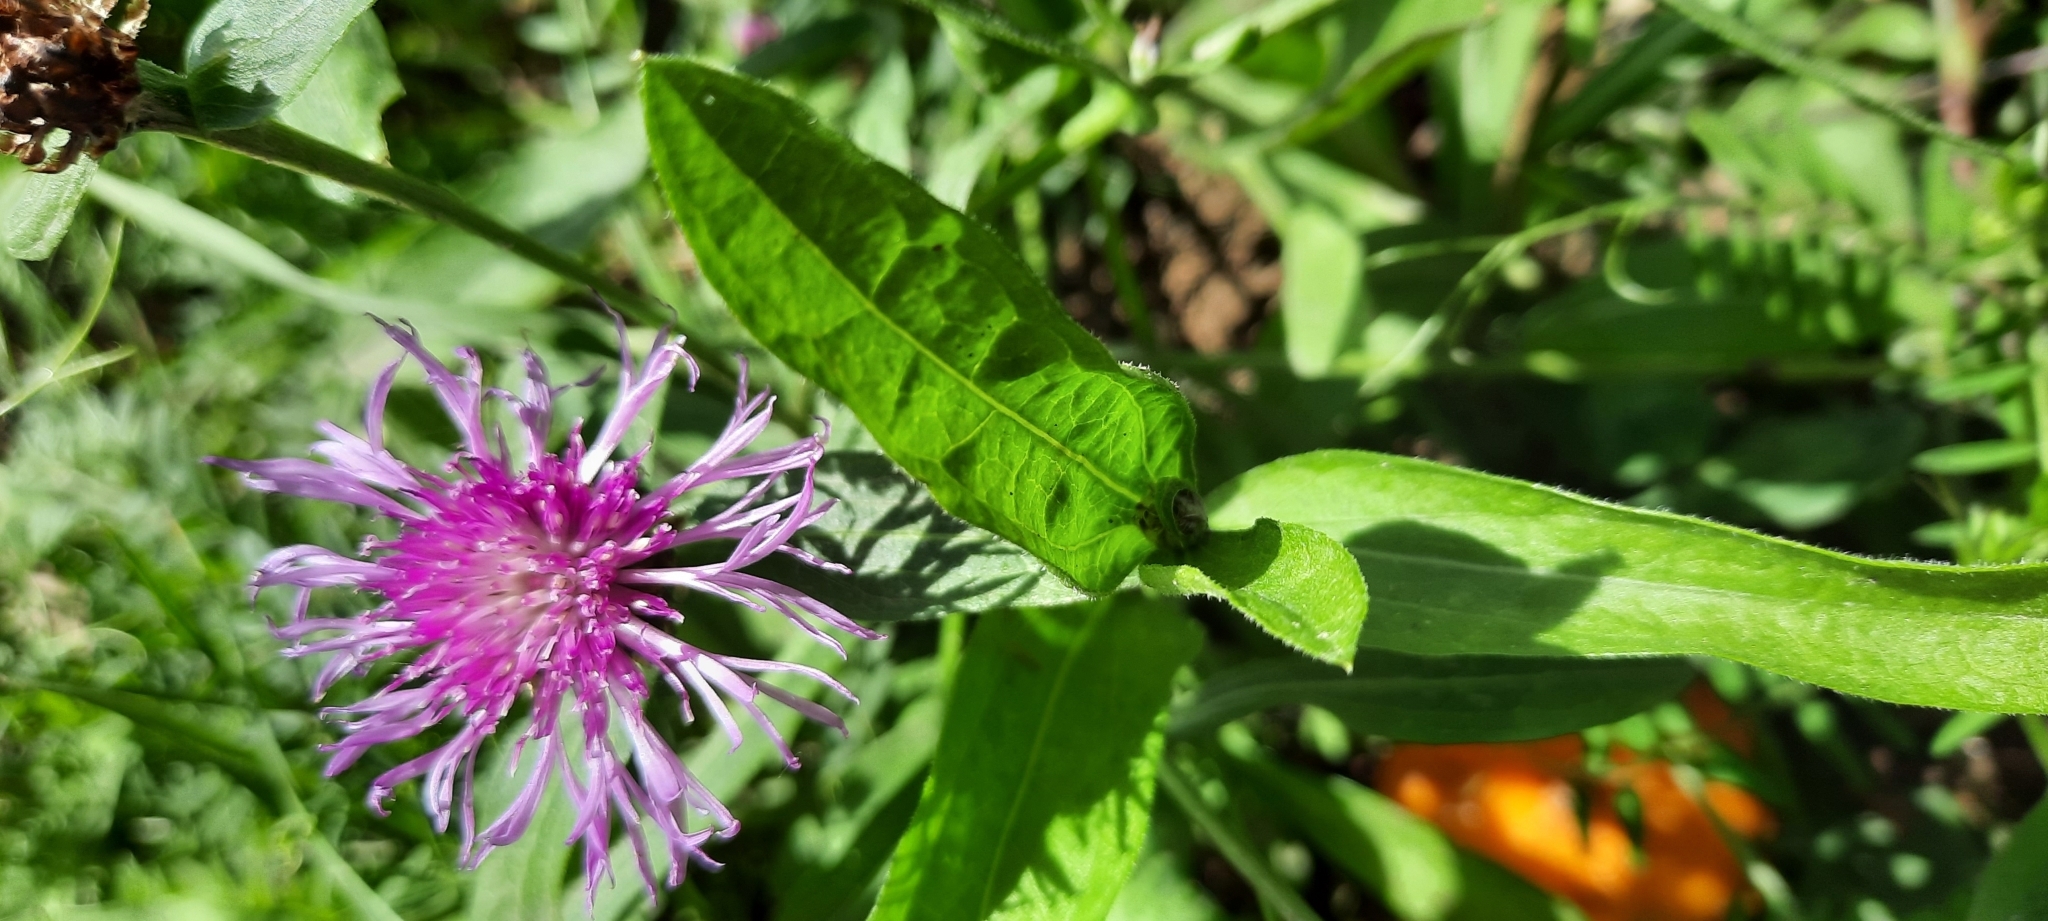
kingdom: Plantae
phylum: Tracheophyta
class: Magnoliopsida
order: Asterales
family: Asteraceae
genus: Centaurea
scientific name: Centaurea jacea
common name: Brown knapweed
